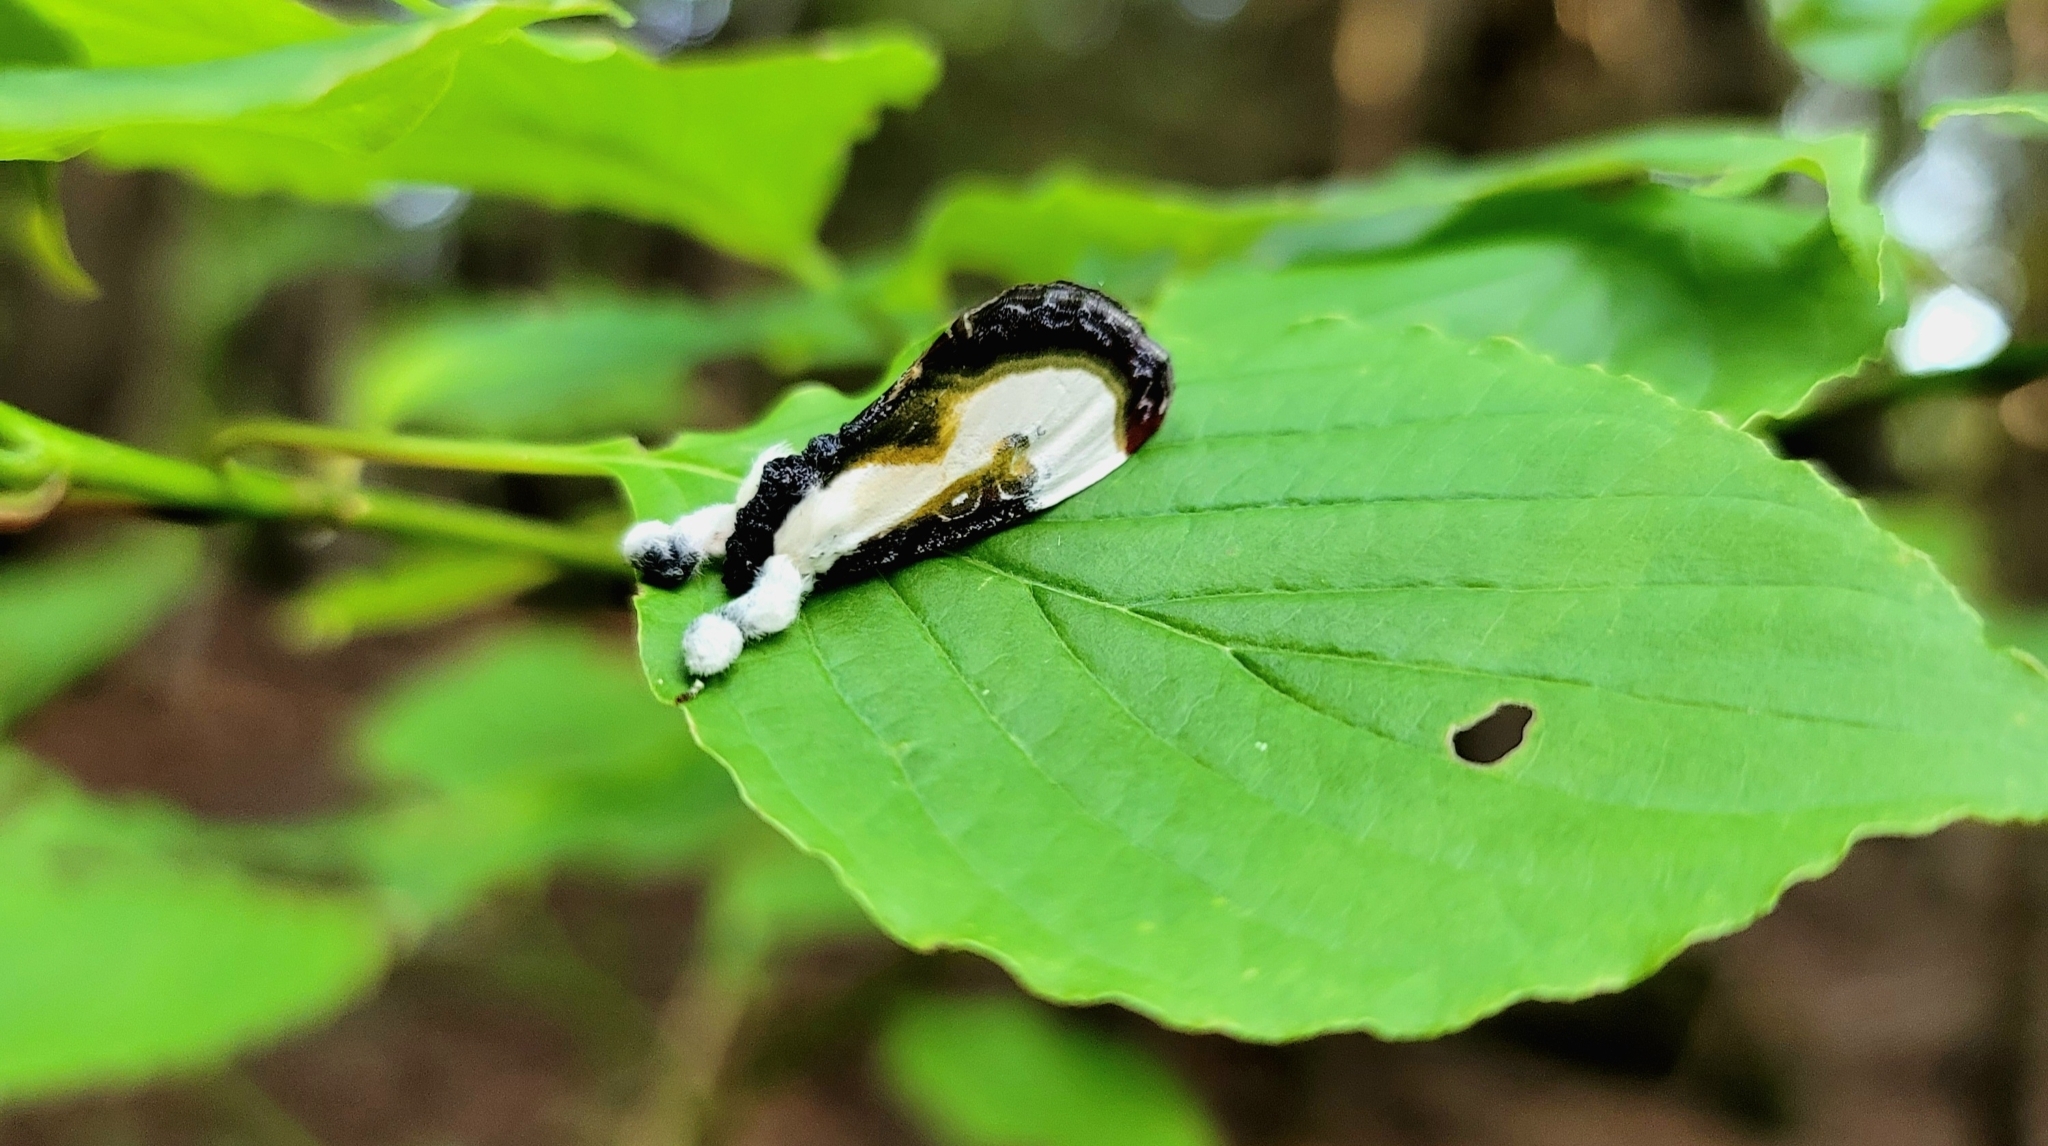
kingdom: Animalia
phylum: Arthropoda
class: Insecta
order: Lepidoptera
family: Noctuidae
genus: Eudryas
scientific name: Eudryas grata
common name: Beautiful wood-nymph
